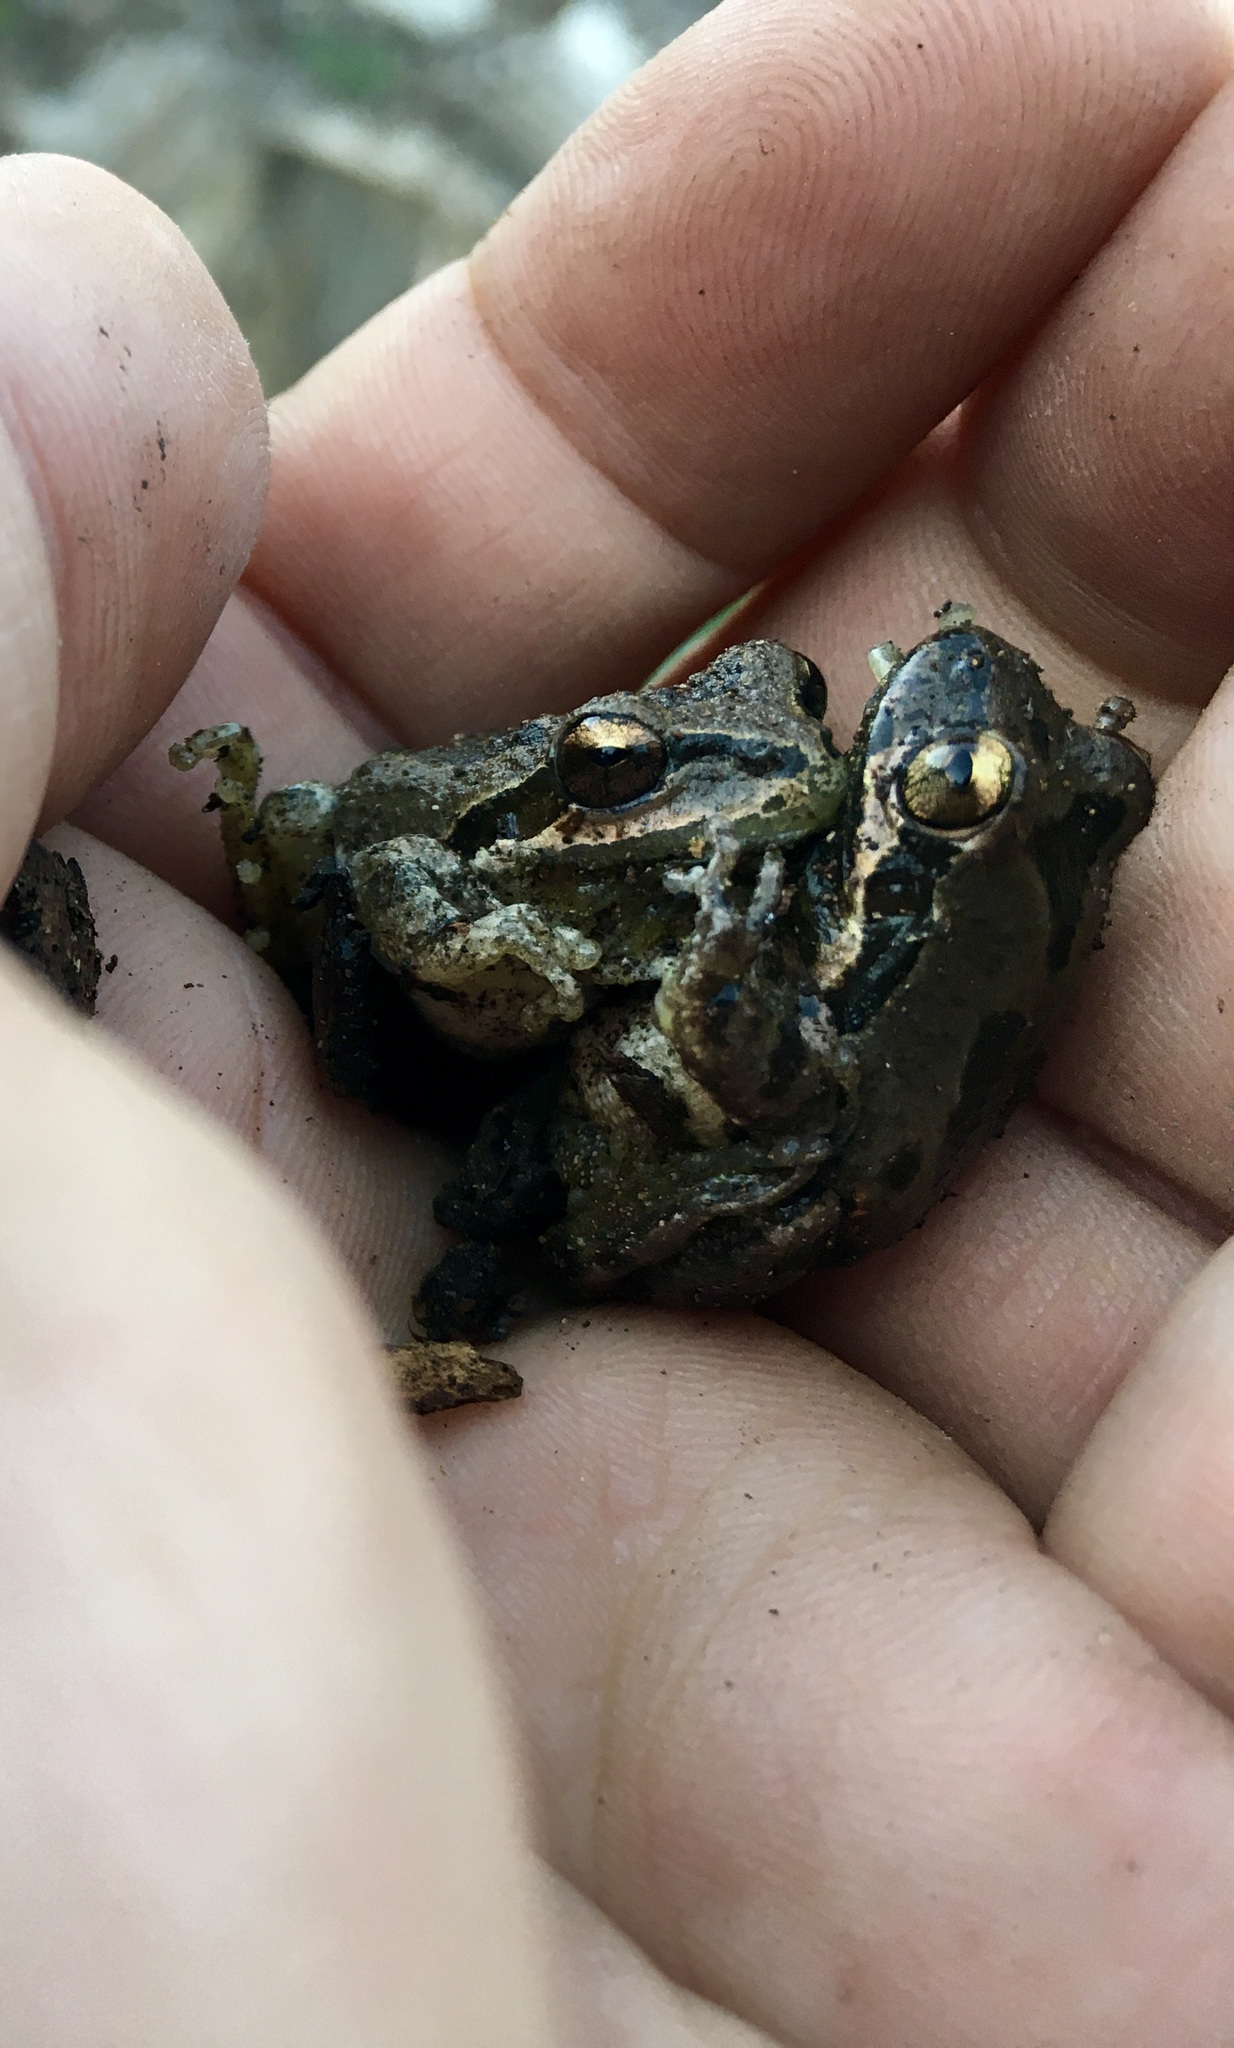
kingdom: Animalia
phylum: Chordata
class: Amphibia
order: Anura
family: Hylidae
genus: Pseudacris
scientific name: Pseudacris regilla
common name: Pacific chorus frog
